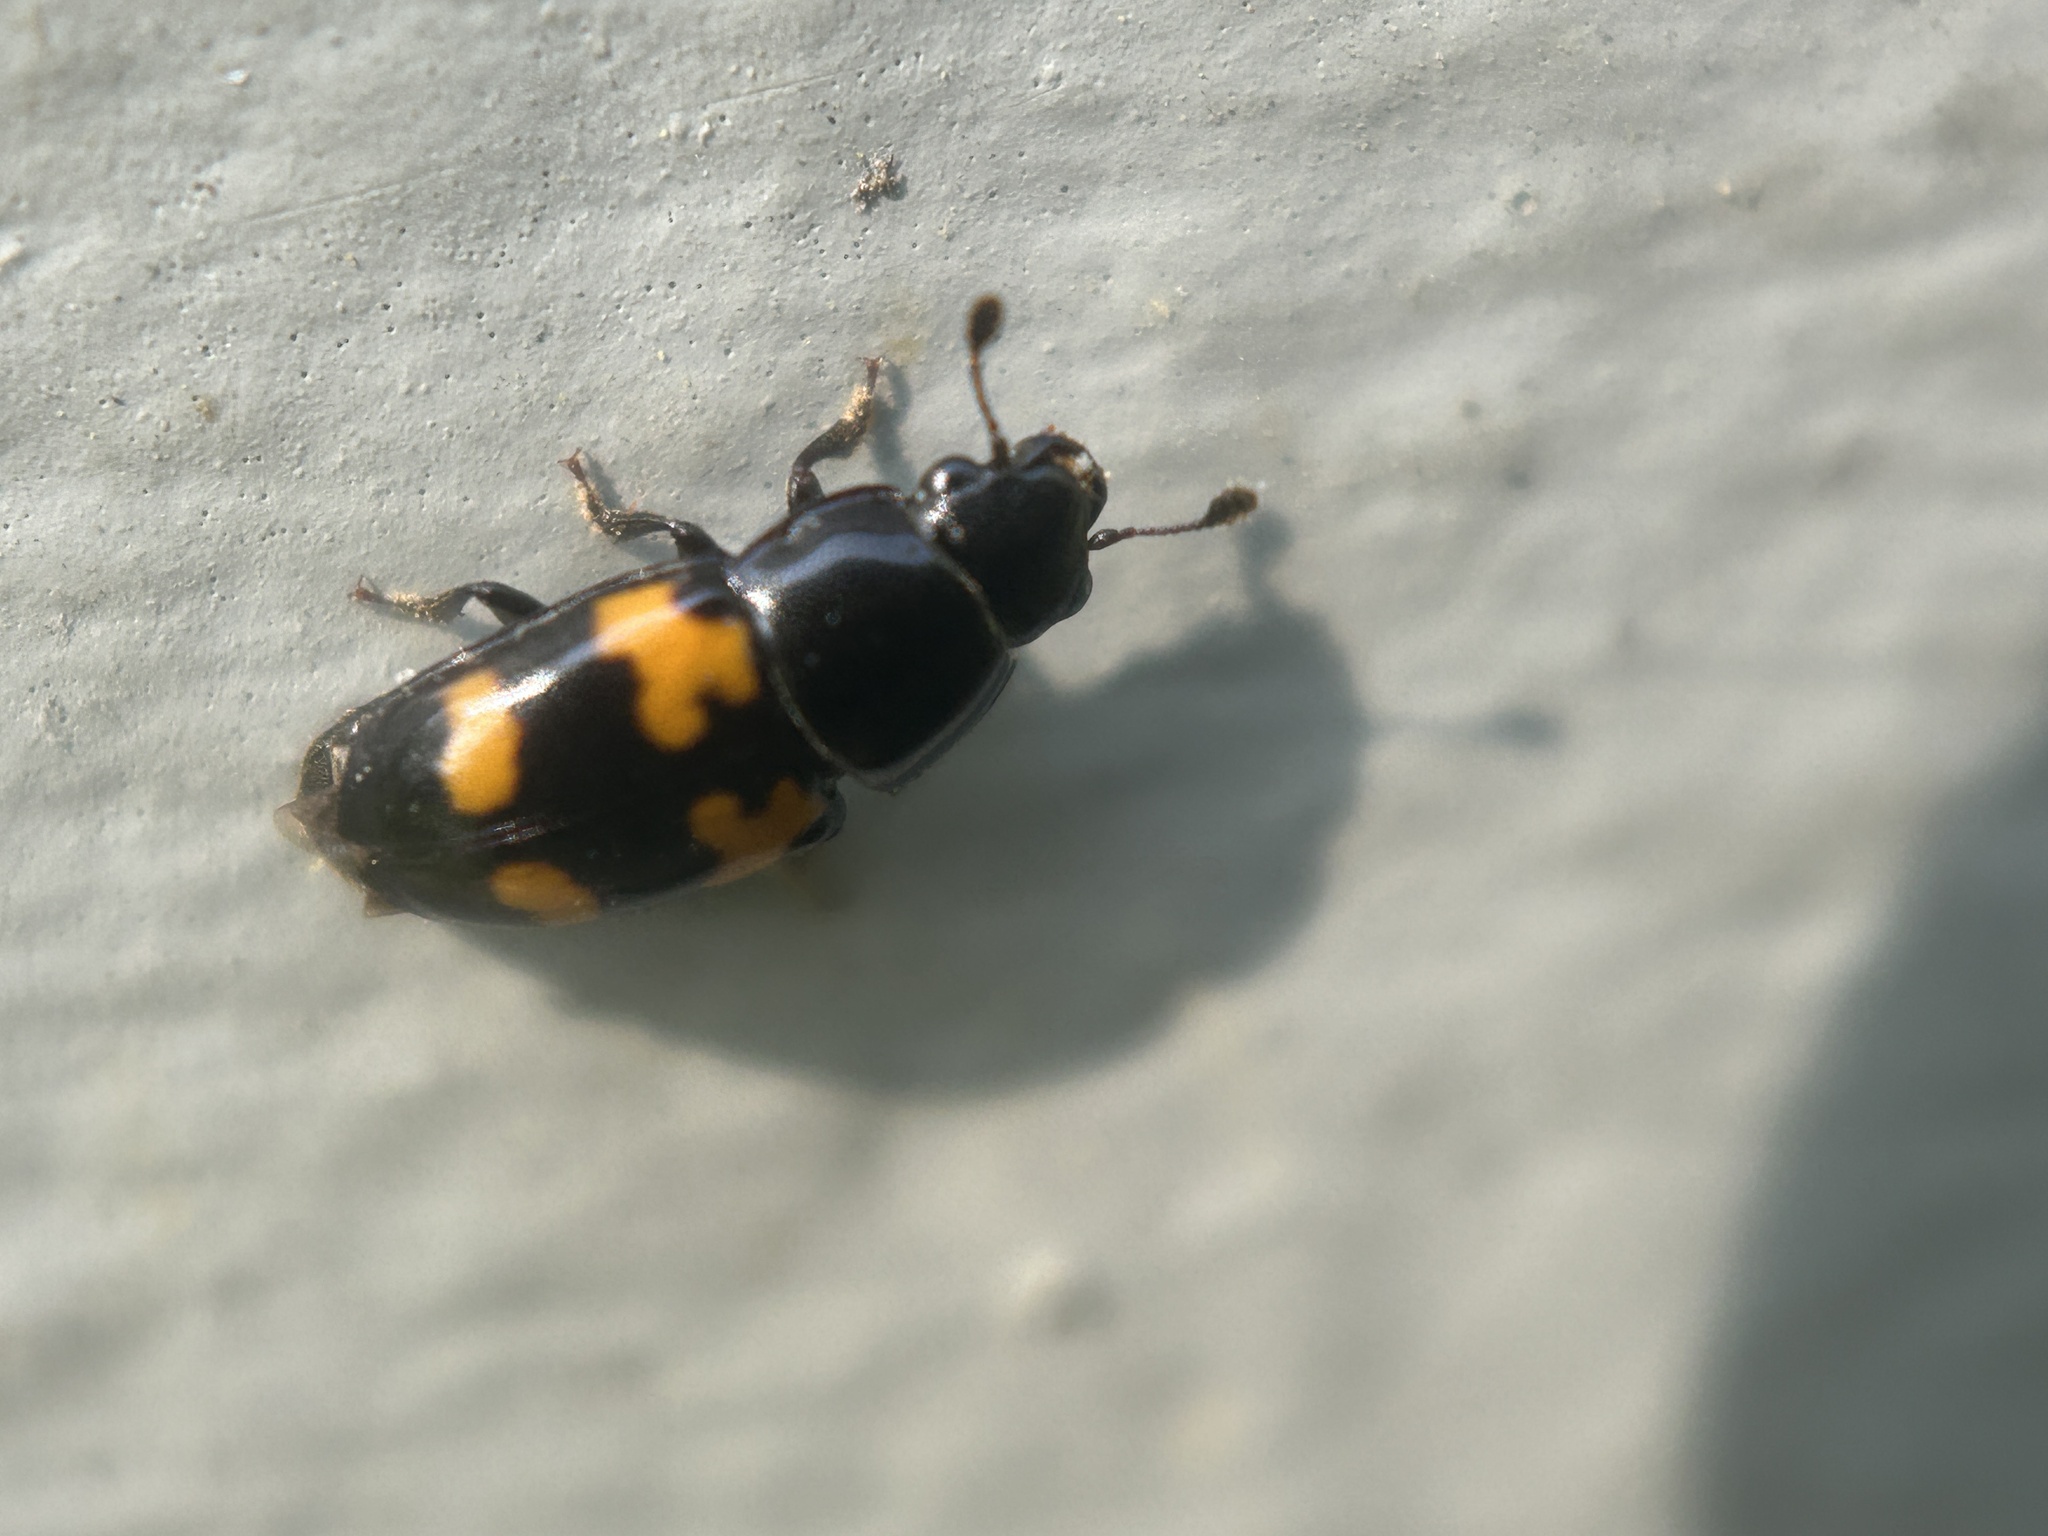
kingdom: Animalia
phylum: Arthropoda
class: Insecta
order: Coleoptera
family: Nitidulidae
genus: Glischrochilus
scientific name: Glischrochilus fasciatus
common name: Picnic beetle
